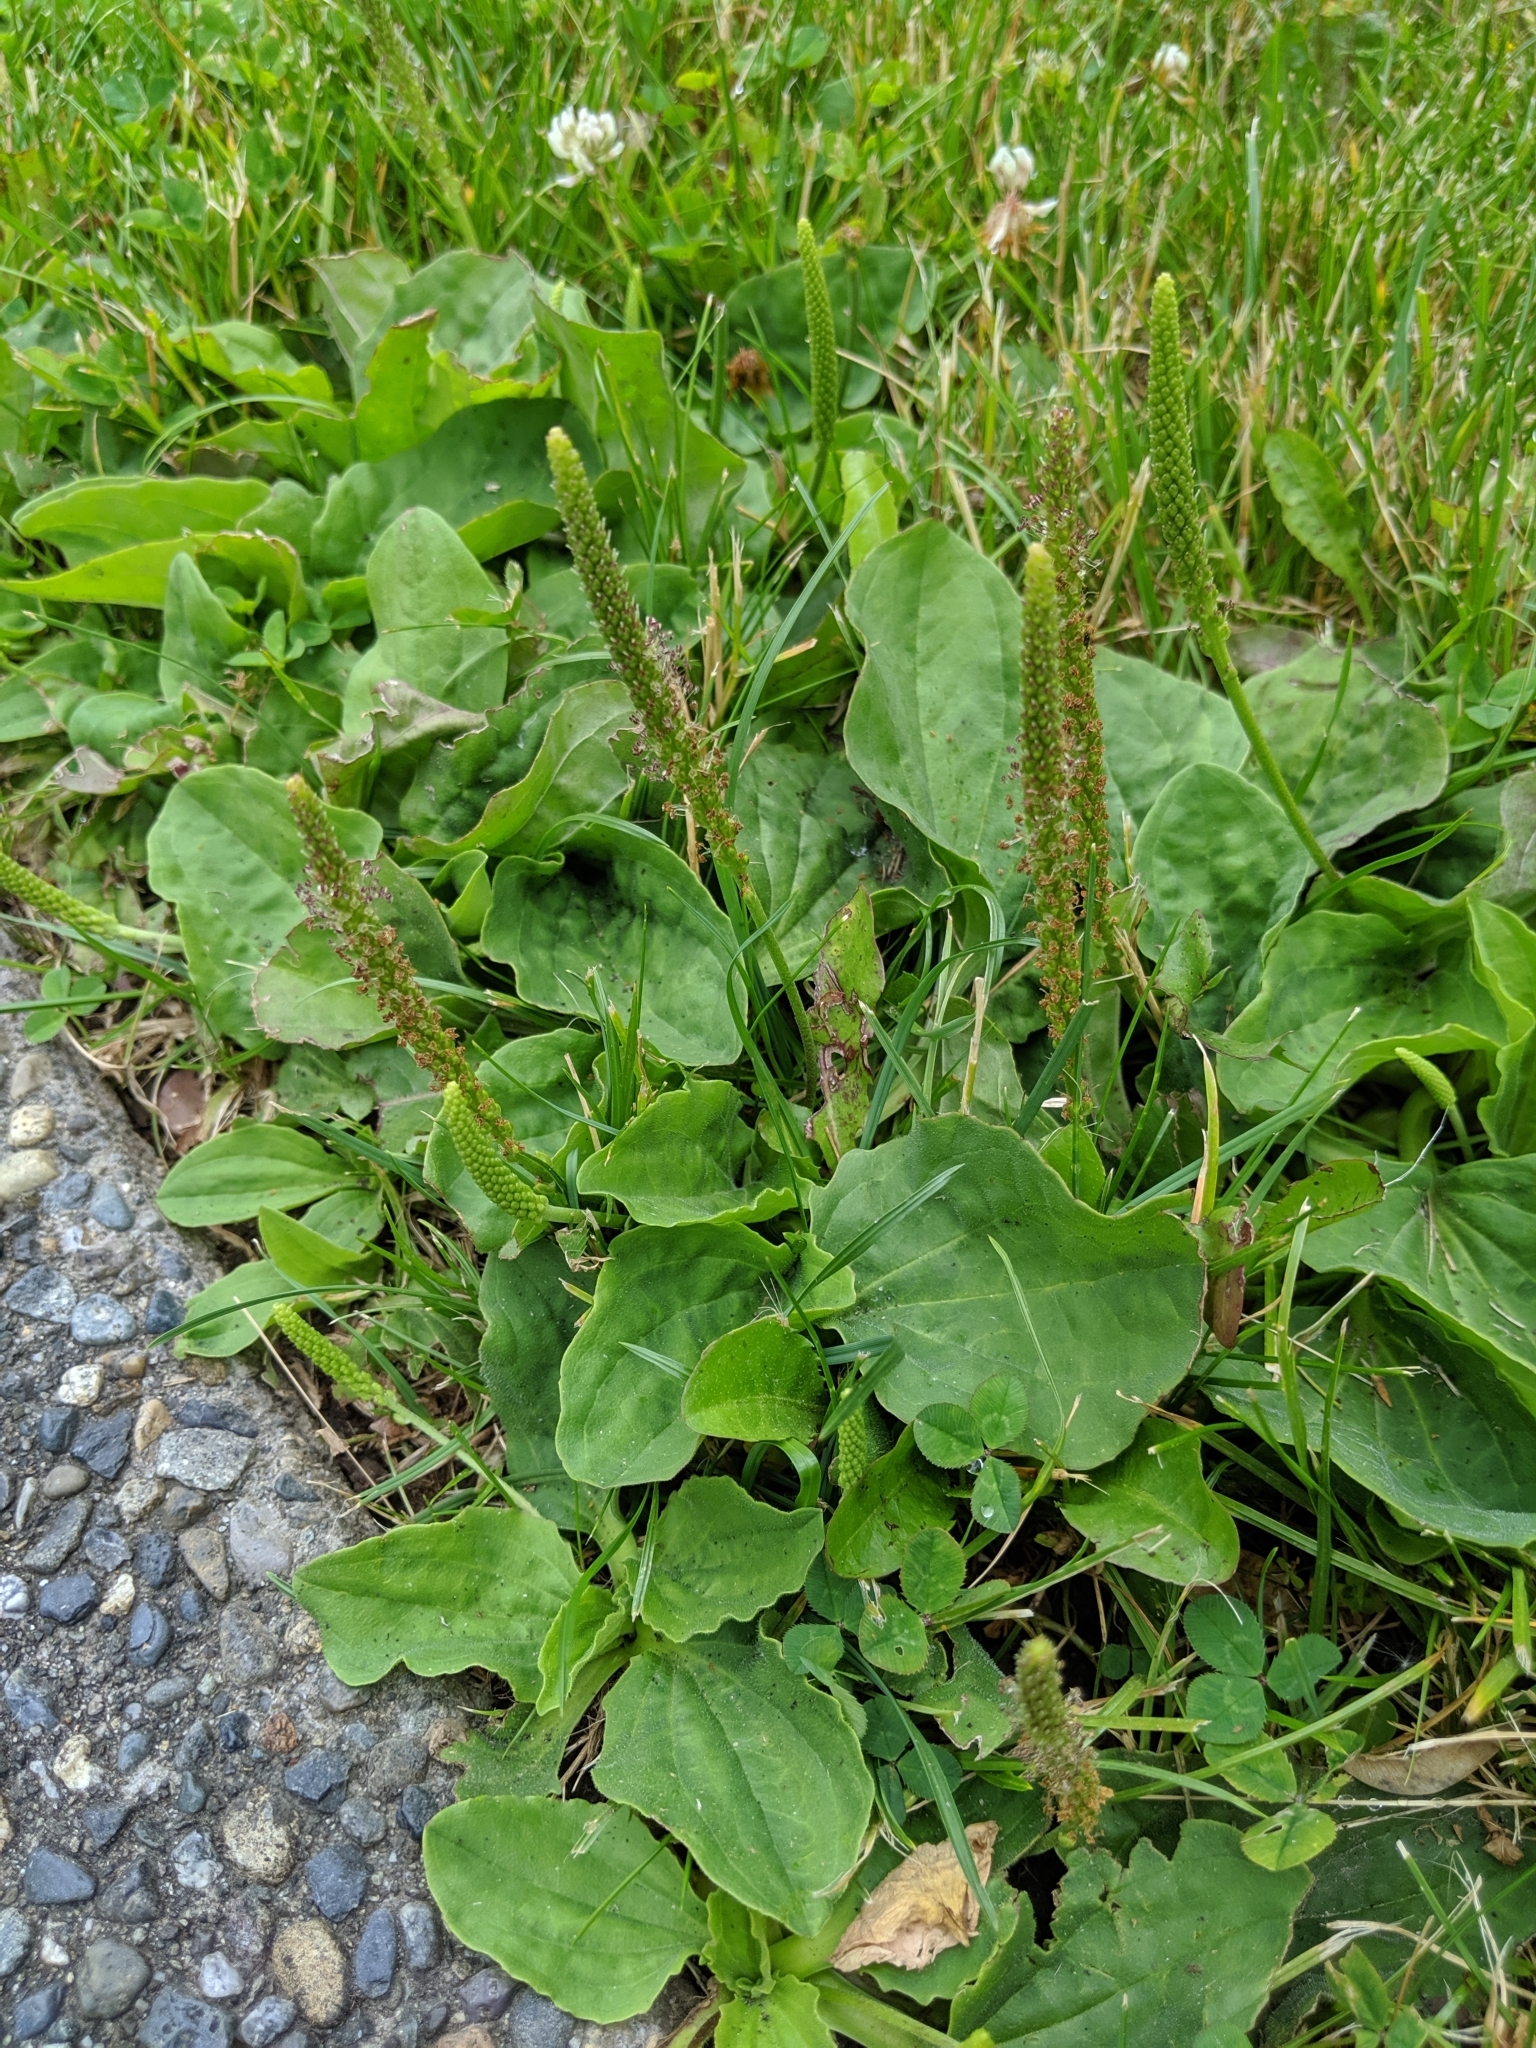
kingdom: Plantae
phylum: Tracheophyta
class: Magnoliopsida
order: Lamiales
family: Plantaginaceae
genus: Plantago
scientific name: Plantago major
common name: Common plantain
